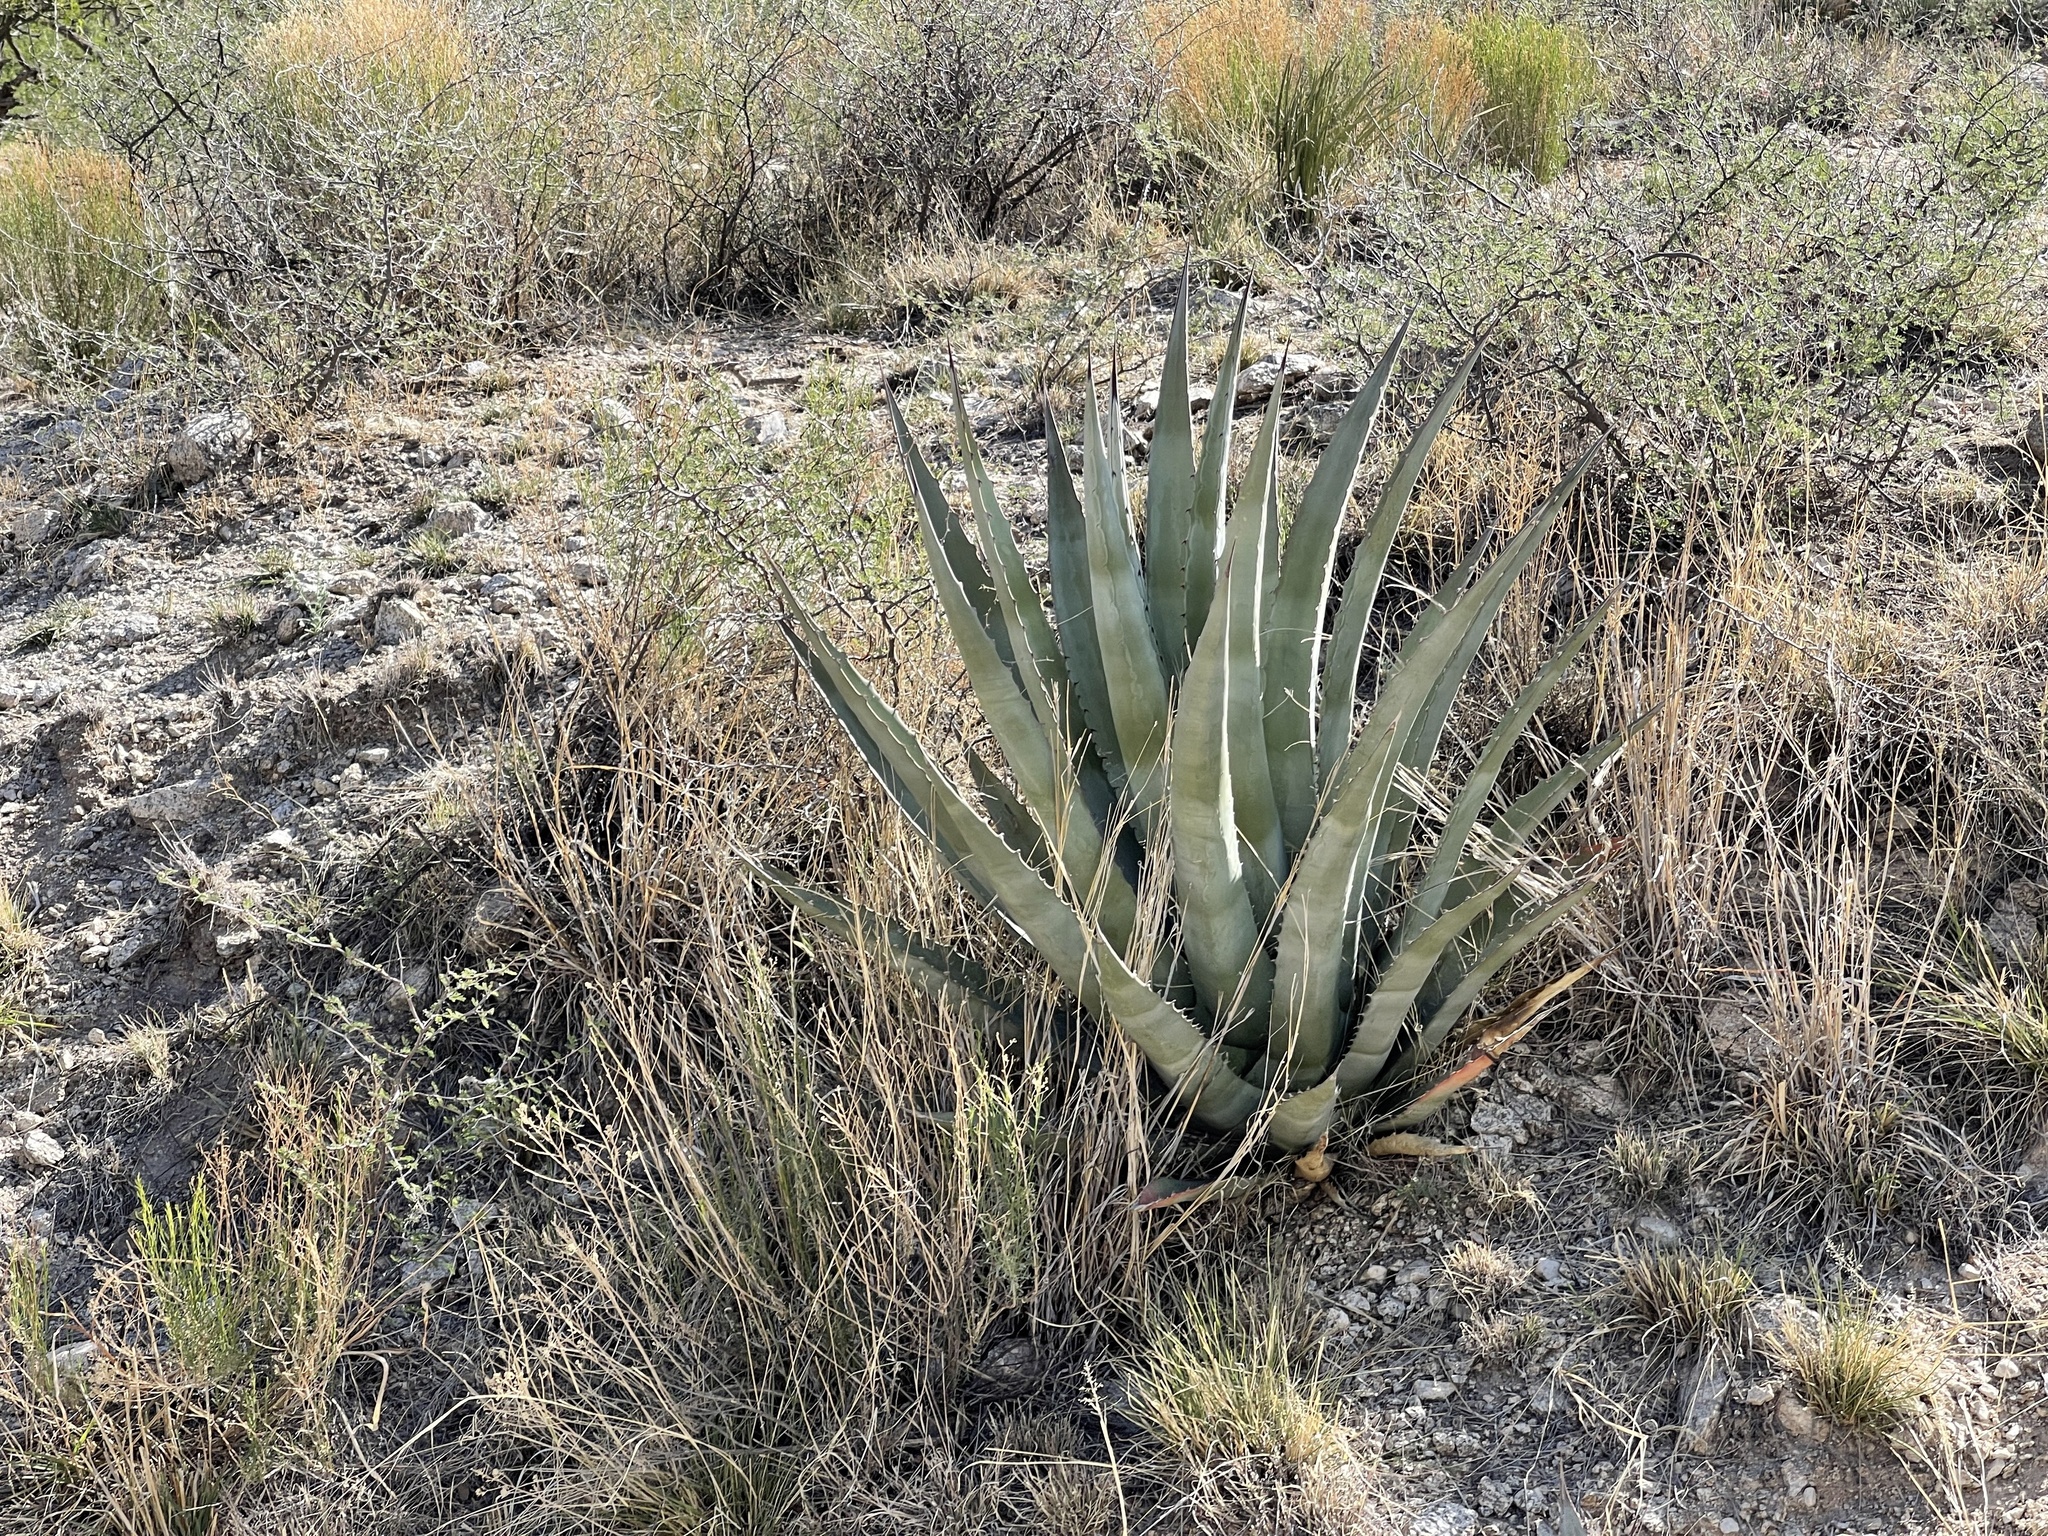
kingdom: Plantae
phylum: Tracheophyta
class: Liliopsida
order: Asparagales
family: Asparagaceae
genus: Agave
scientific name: Agave palmeri
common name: Palmer agave
